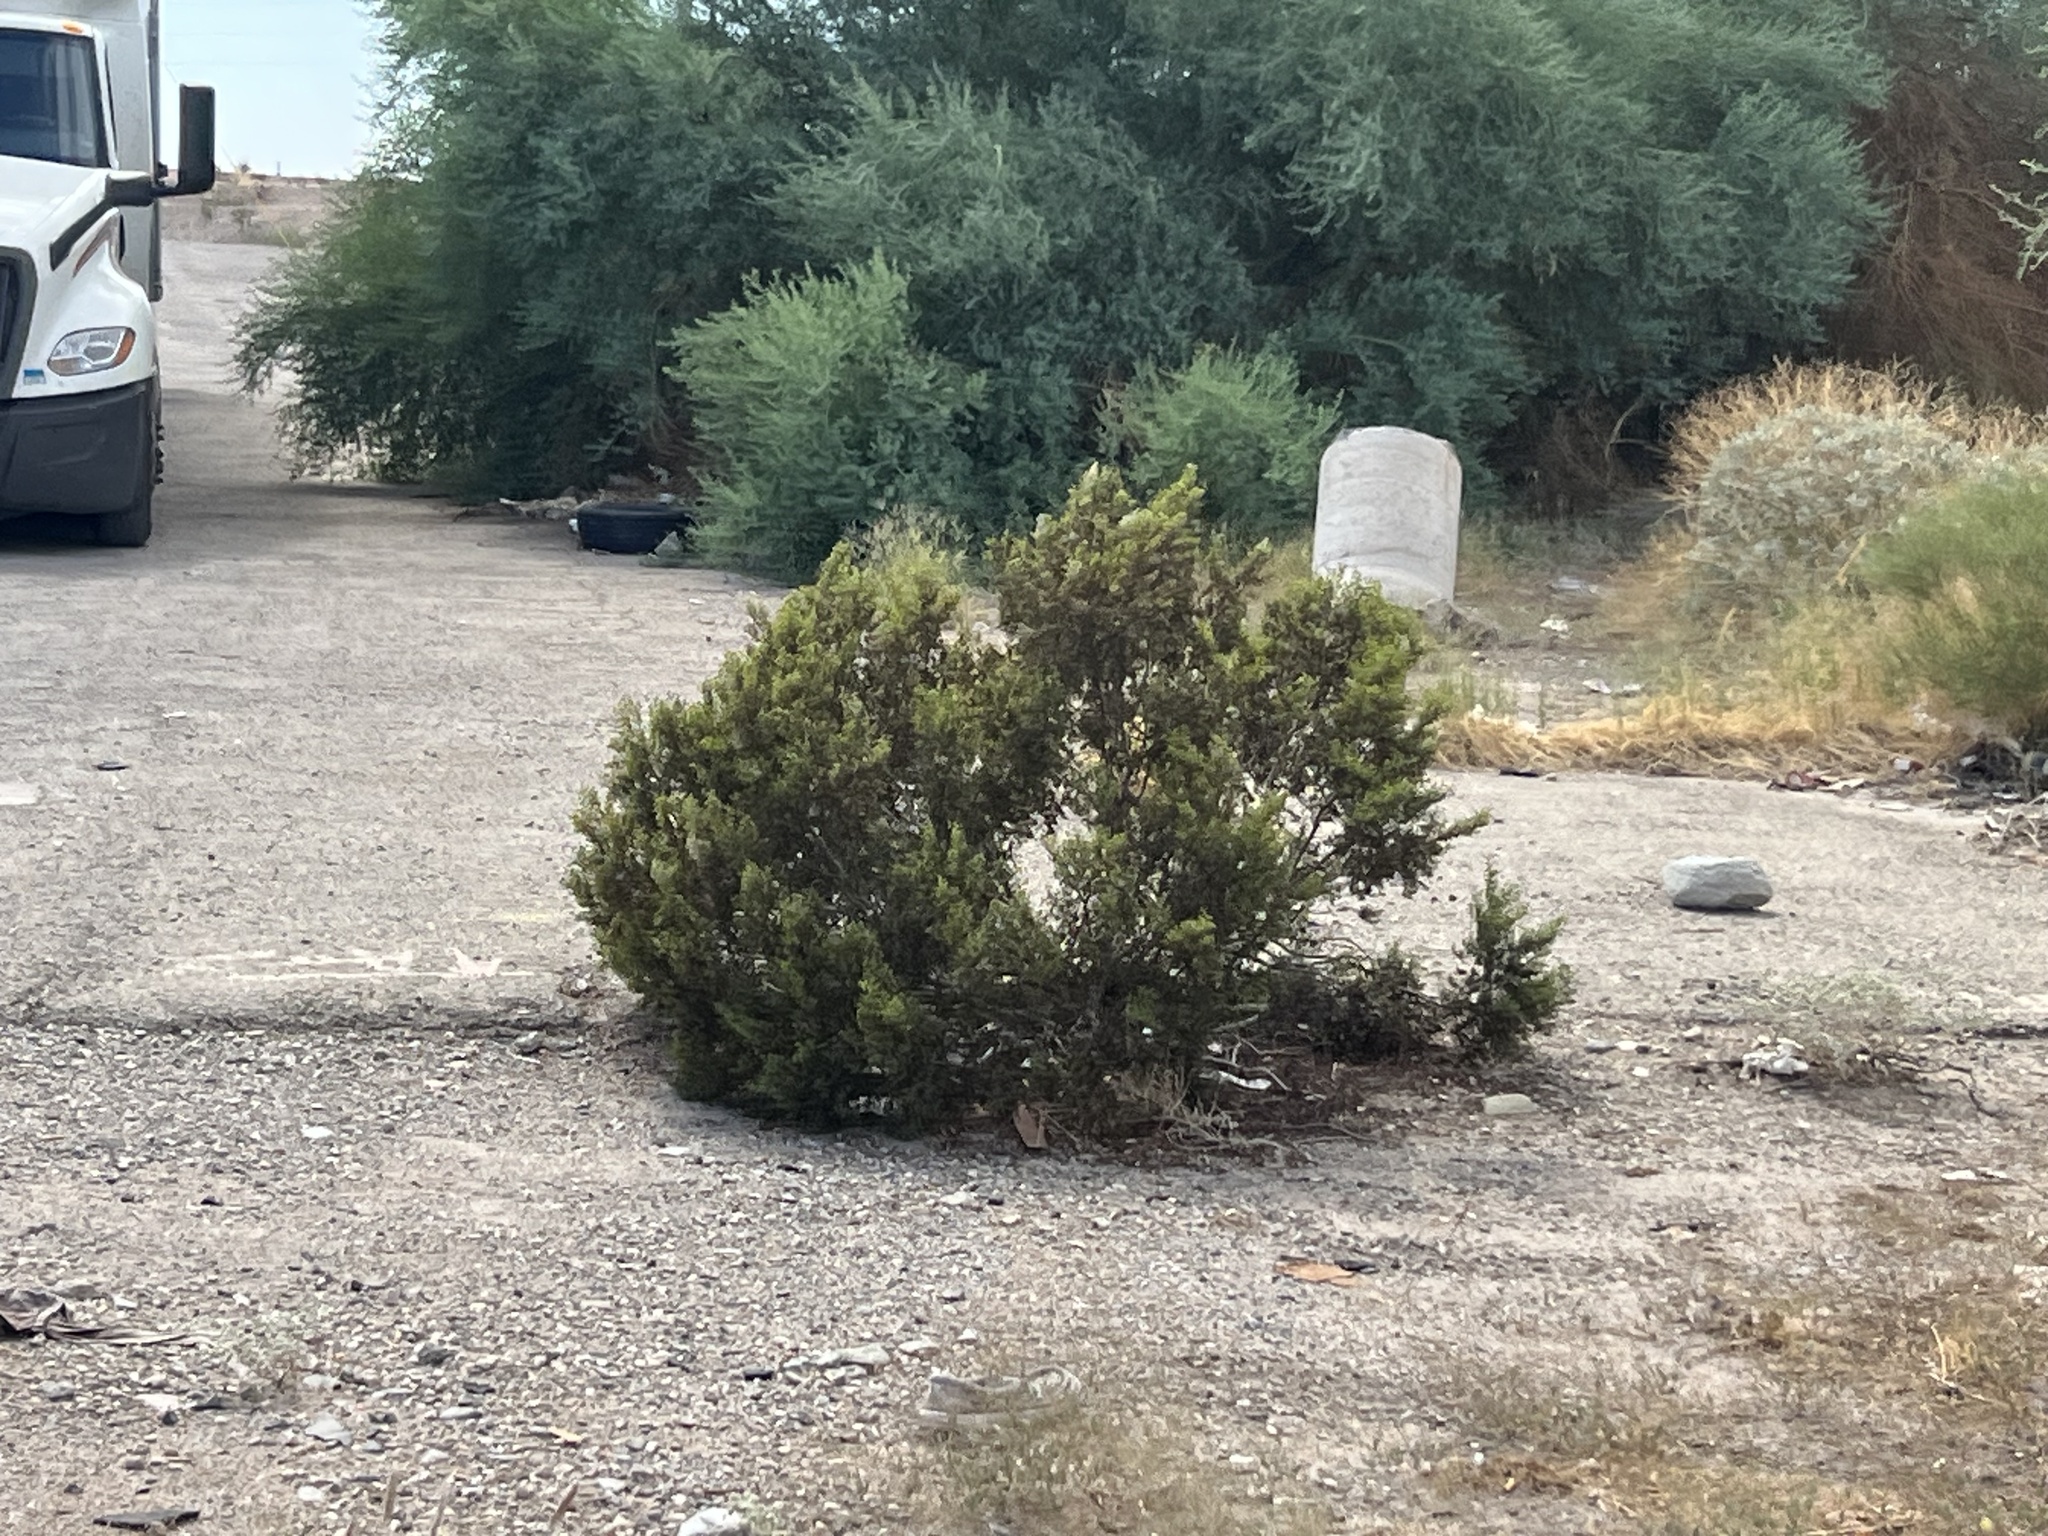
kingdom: Plantae
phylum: Tracheophyta
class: Magnoliopsida
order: Zygophyllales
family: Zygophyllaceae
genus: Larrea
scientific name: Larrea tridentata
